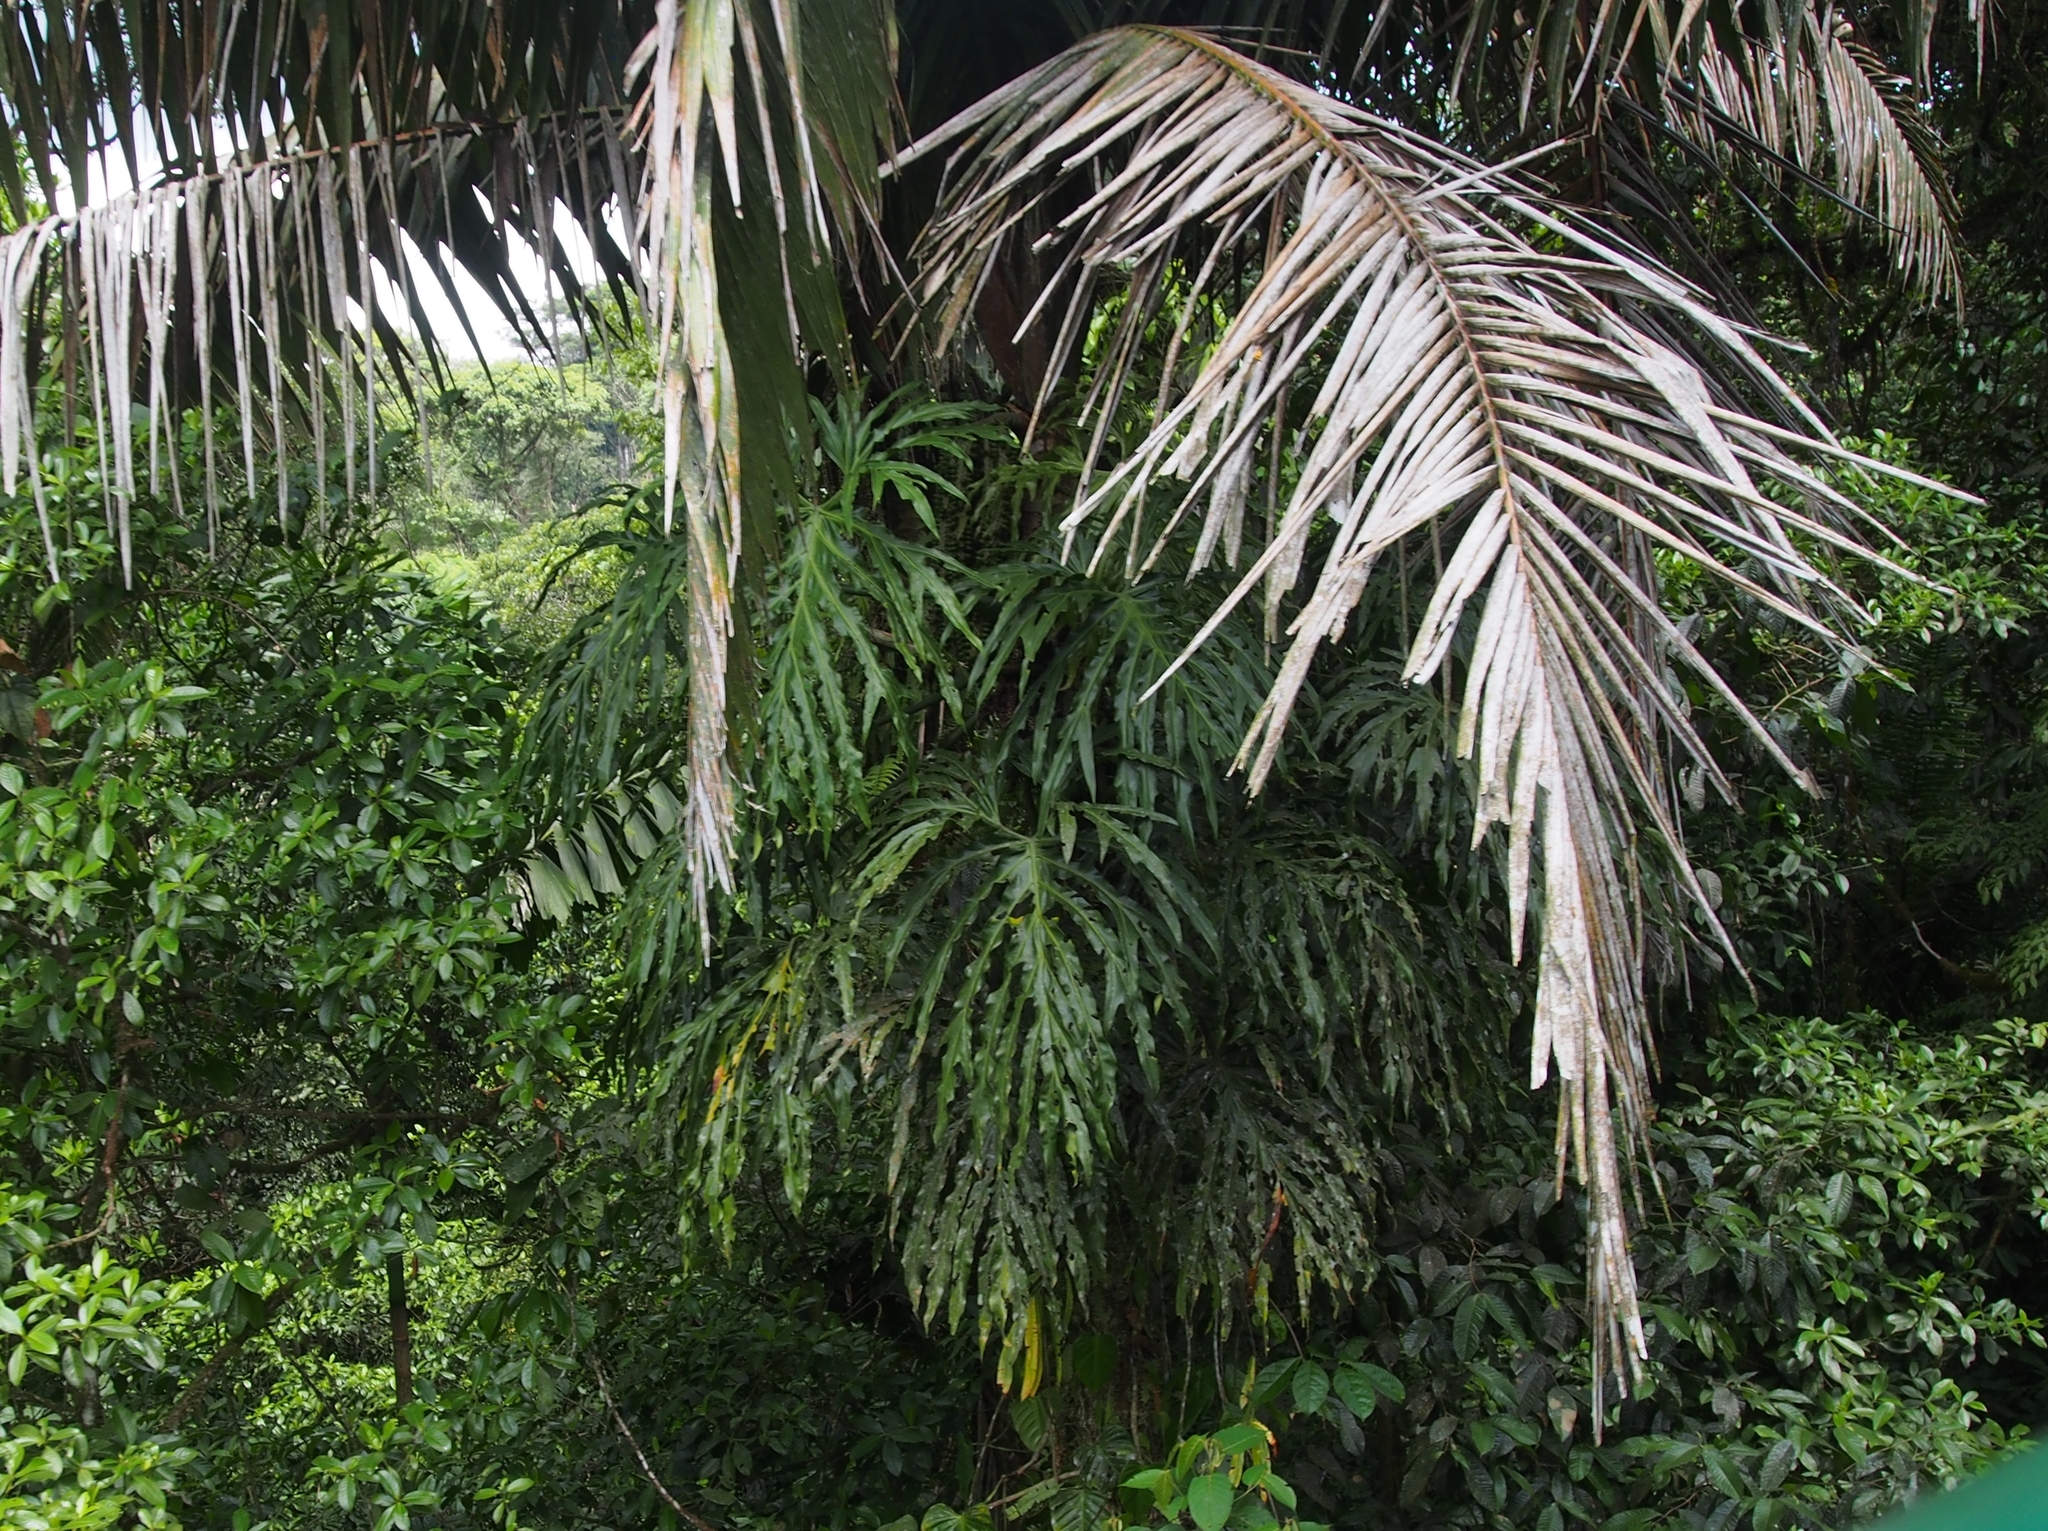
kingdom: Plantae
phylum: Tracheophyta
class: Liliopsida
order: Alismatales
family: Araceae
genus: Philodendron
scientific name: Philodendron radiatum
